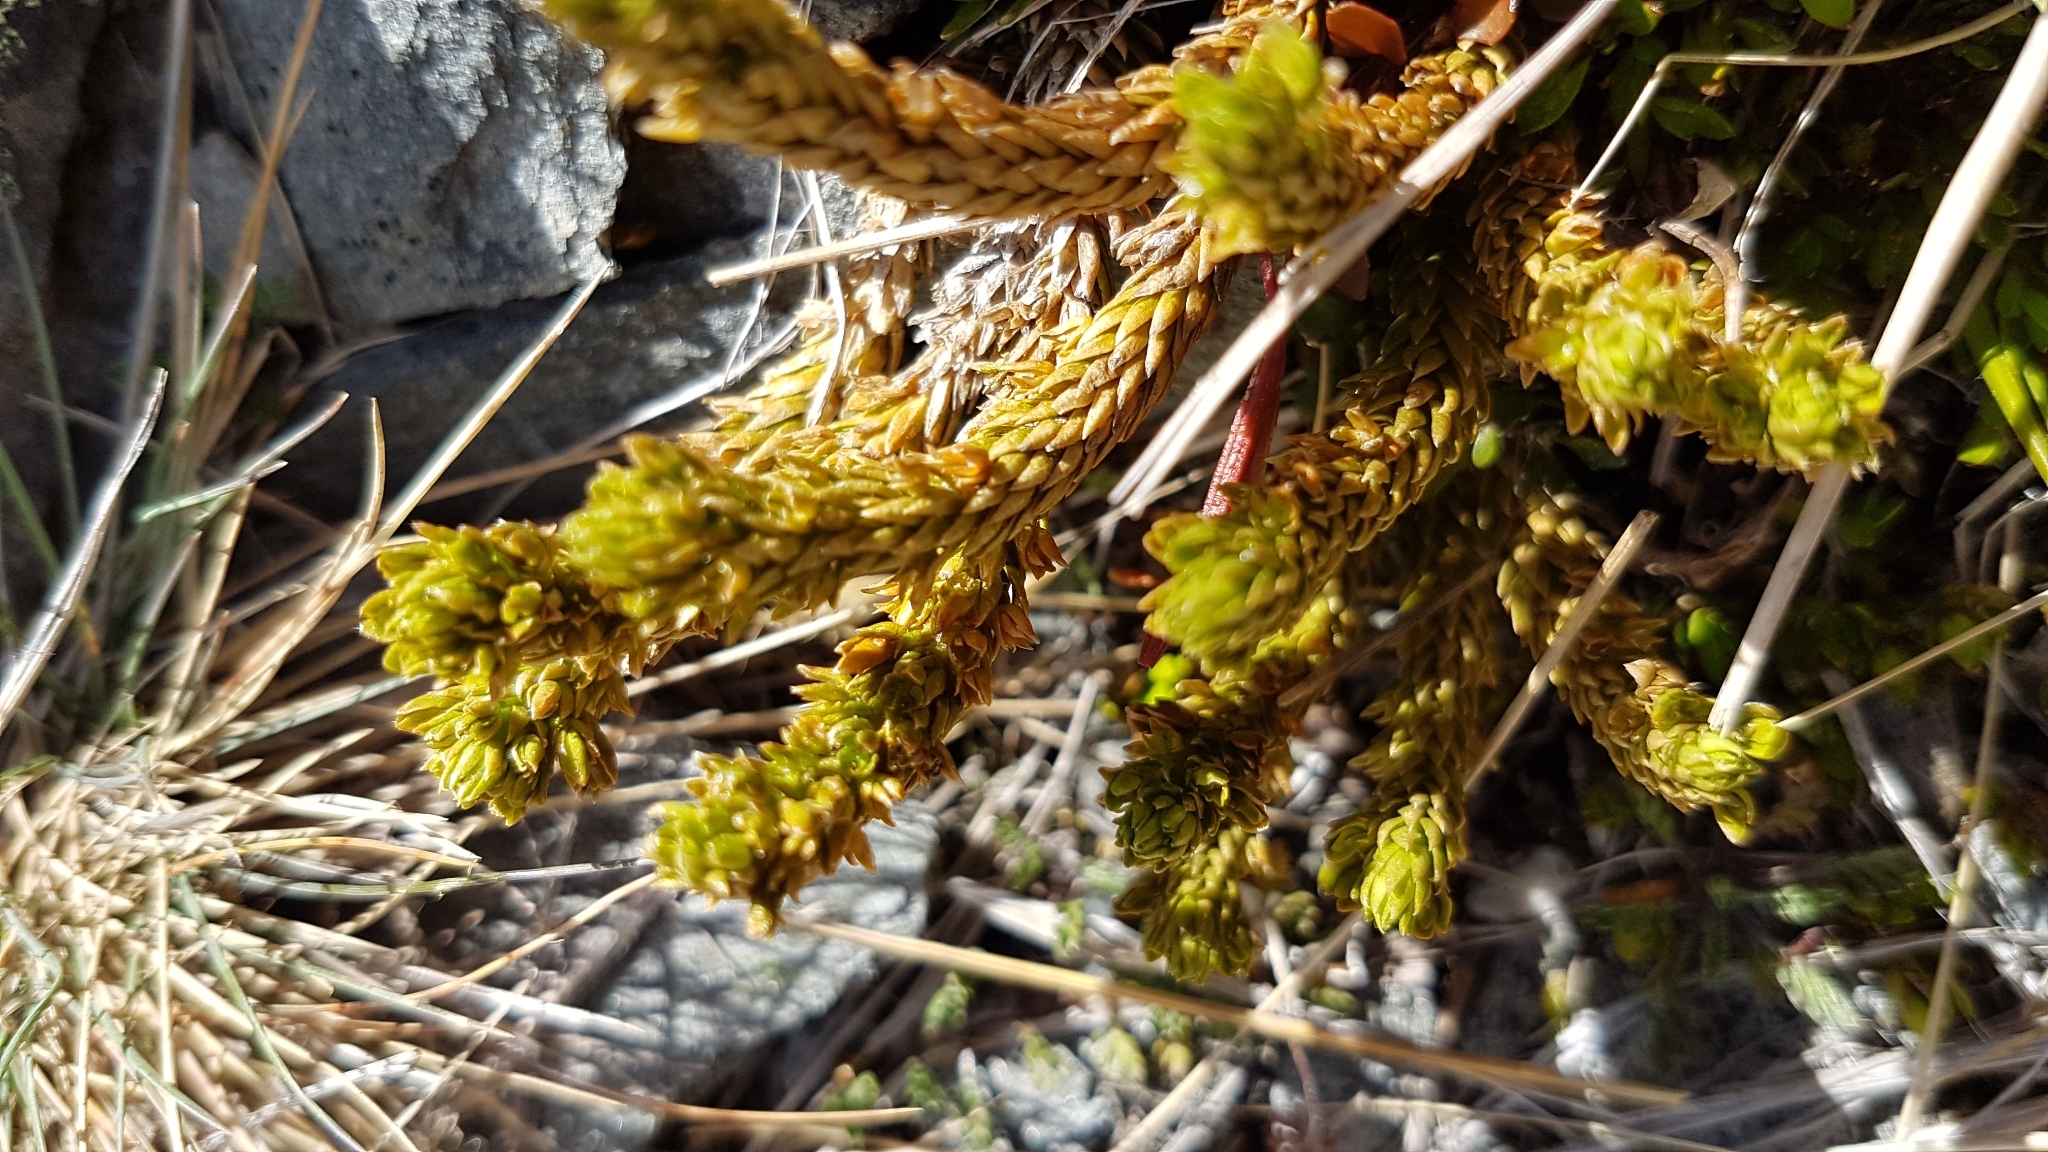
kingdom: Plantae
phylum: Tracheophyta
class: Lycopodiopsida
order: Lycopodiales
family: Lycopodiaceae
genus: Huperzia
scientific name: Huperzia australiana
